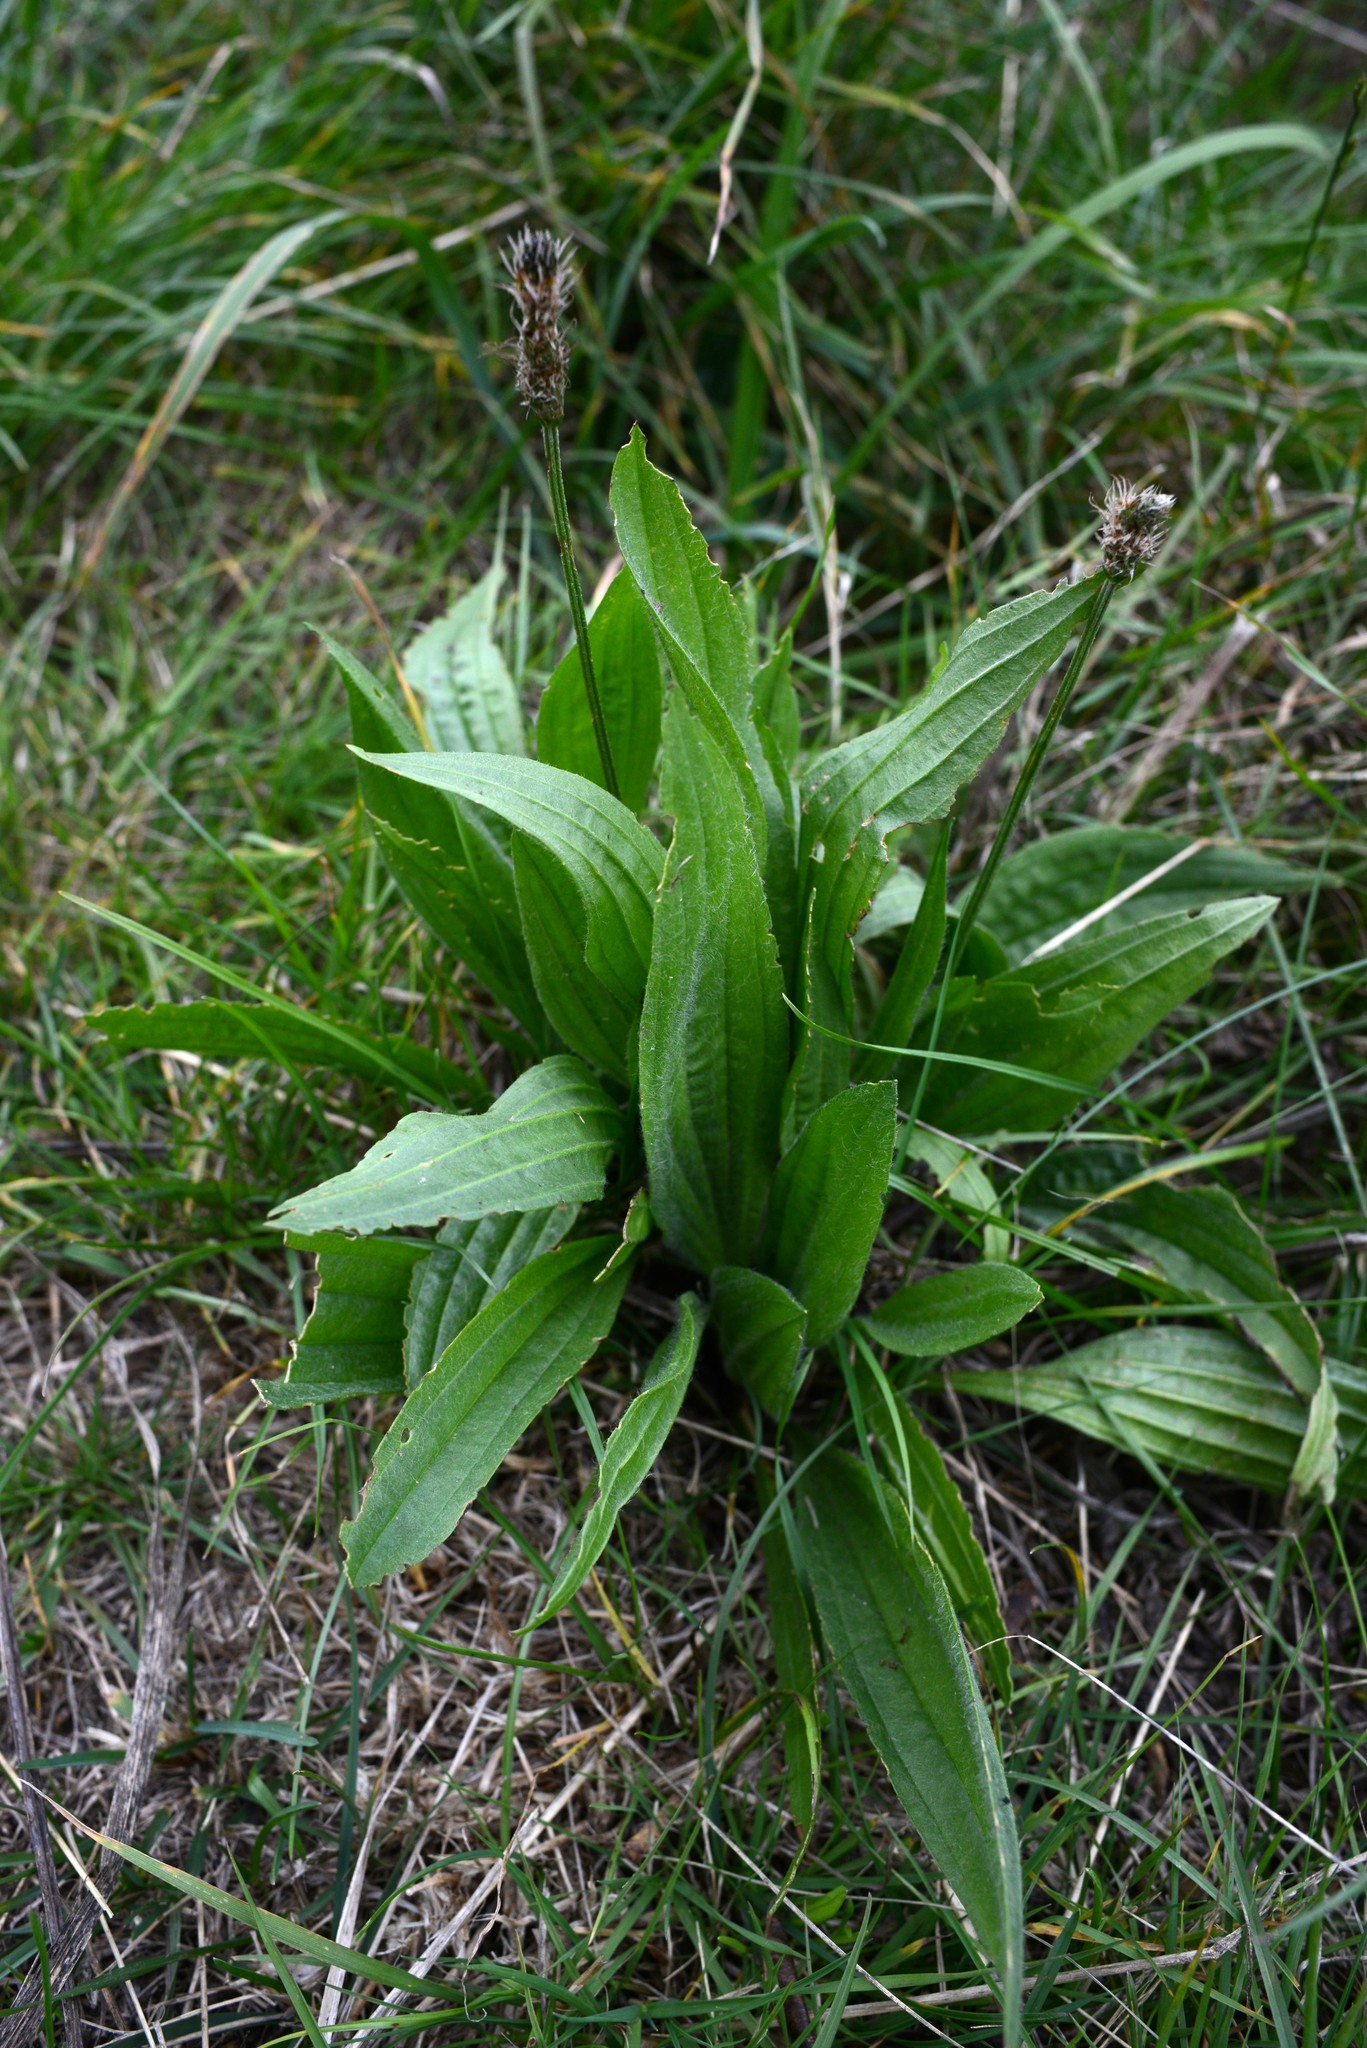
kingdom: Plantae
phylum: Tracheophyta
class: Magnoliopsida
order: Lamiales
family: Plantaginaceae
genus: Plantago
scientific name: Plantago lanceolata
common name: Ribwort plantain
